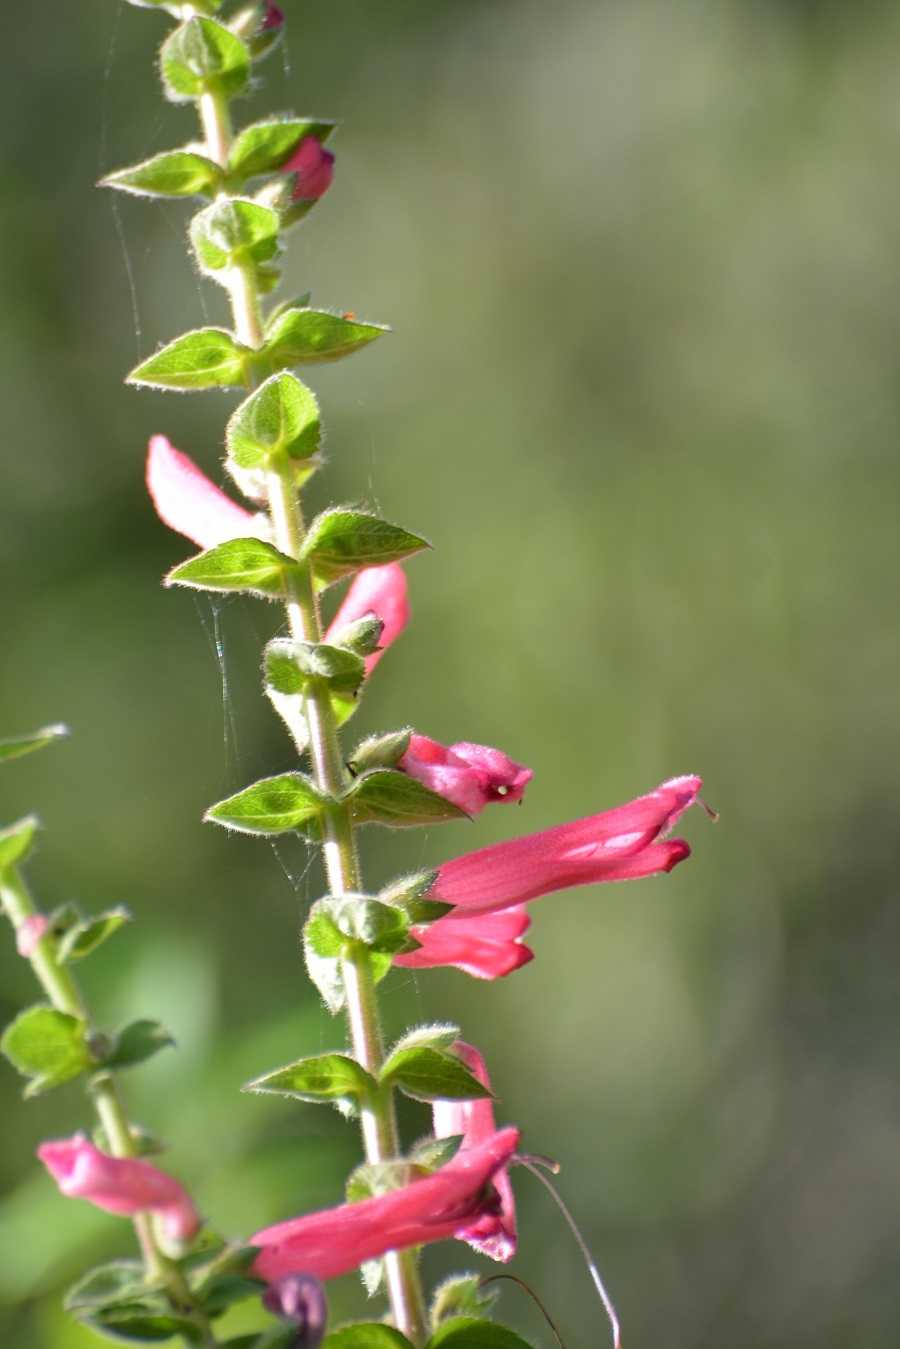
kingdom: Plantae
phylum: Tracheophyta
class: Magnoliopsida
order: Lamiales
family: Orobanchaceae
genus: Lamourouxia
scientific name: Lamourouxia viscosa
